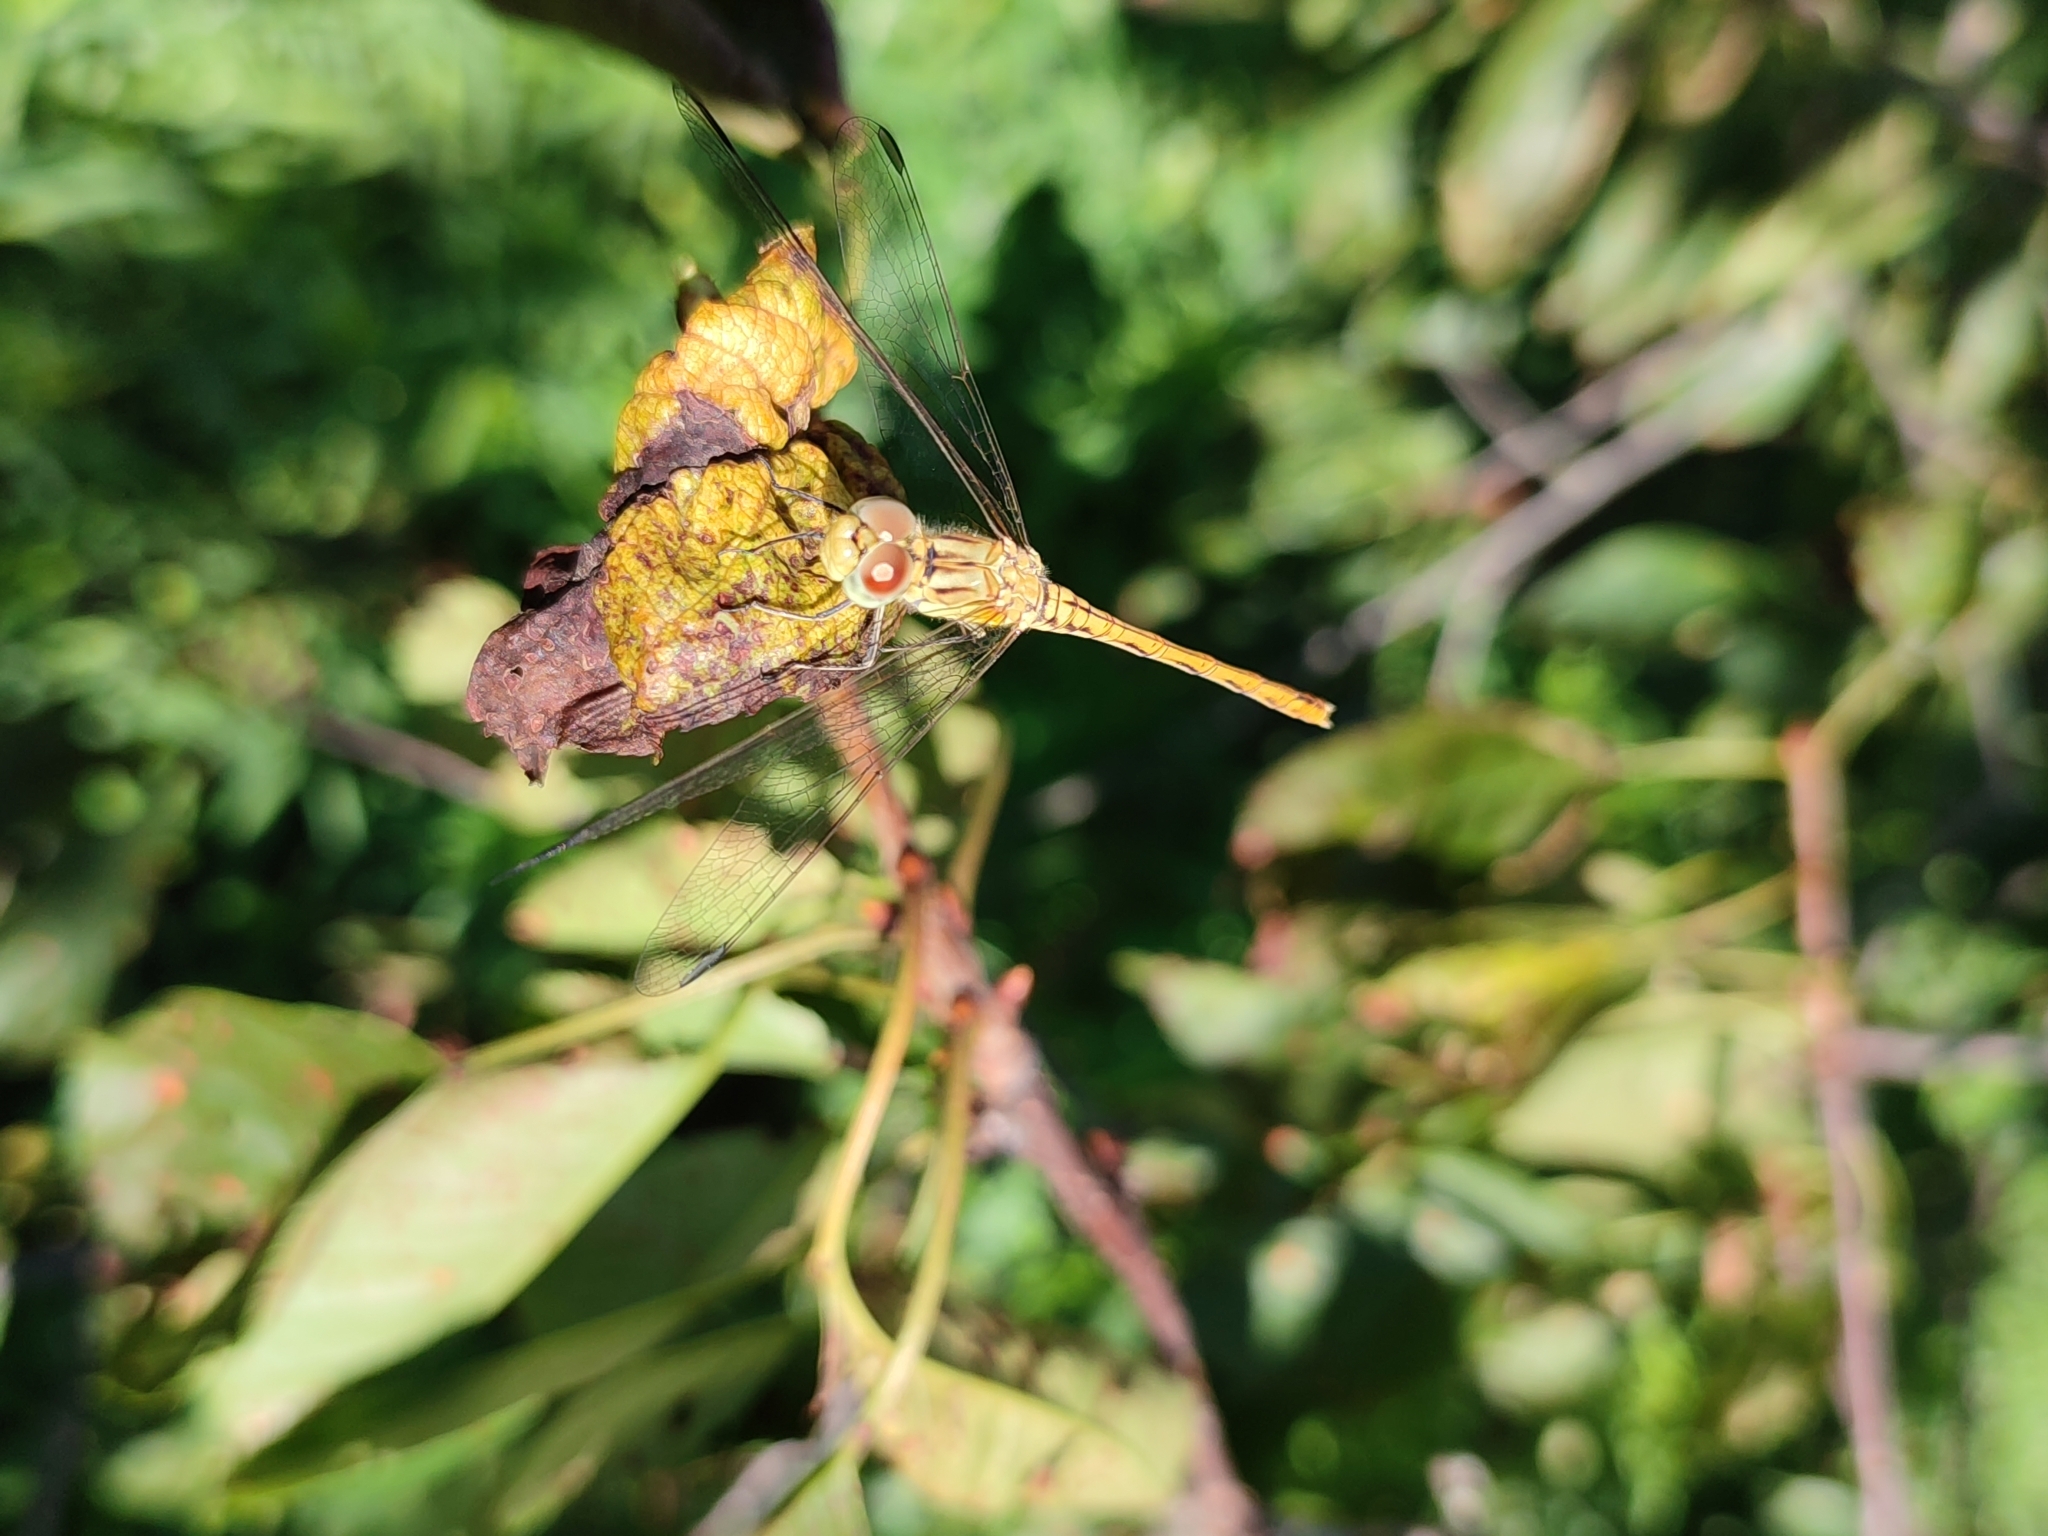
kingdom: Animalia
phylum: Arthropoda
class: Insecta
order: Odonata
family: Libellulidae
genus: Sympetrum
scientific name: Sympetrum meridionale
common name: Southern darter
